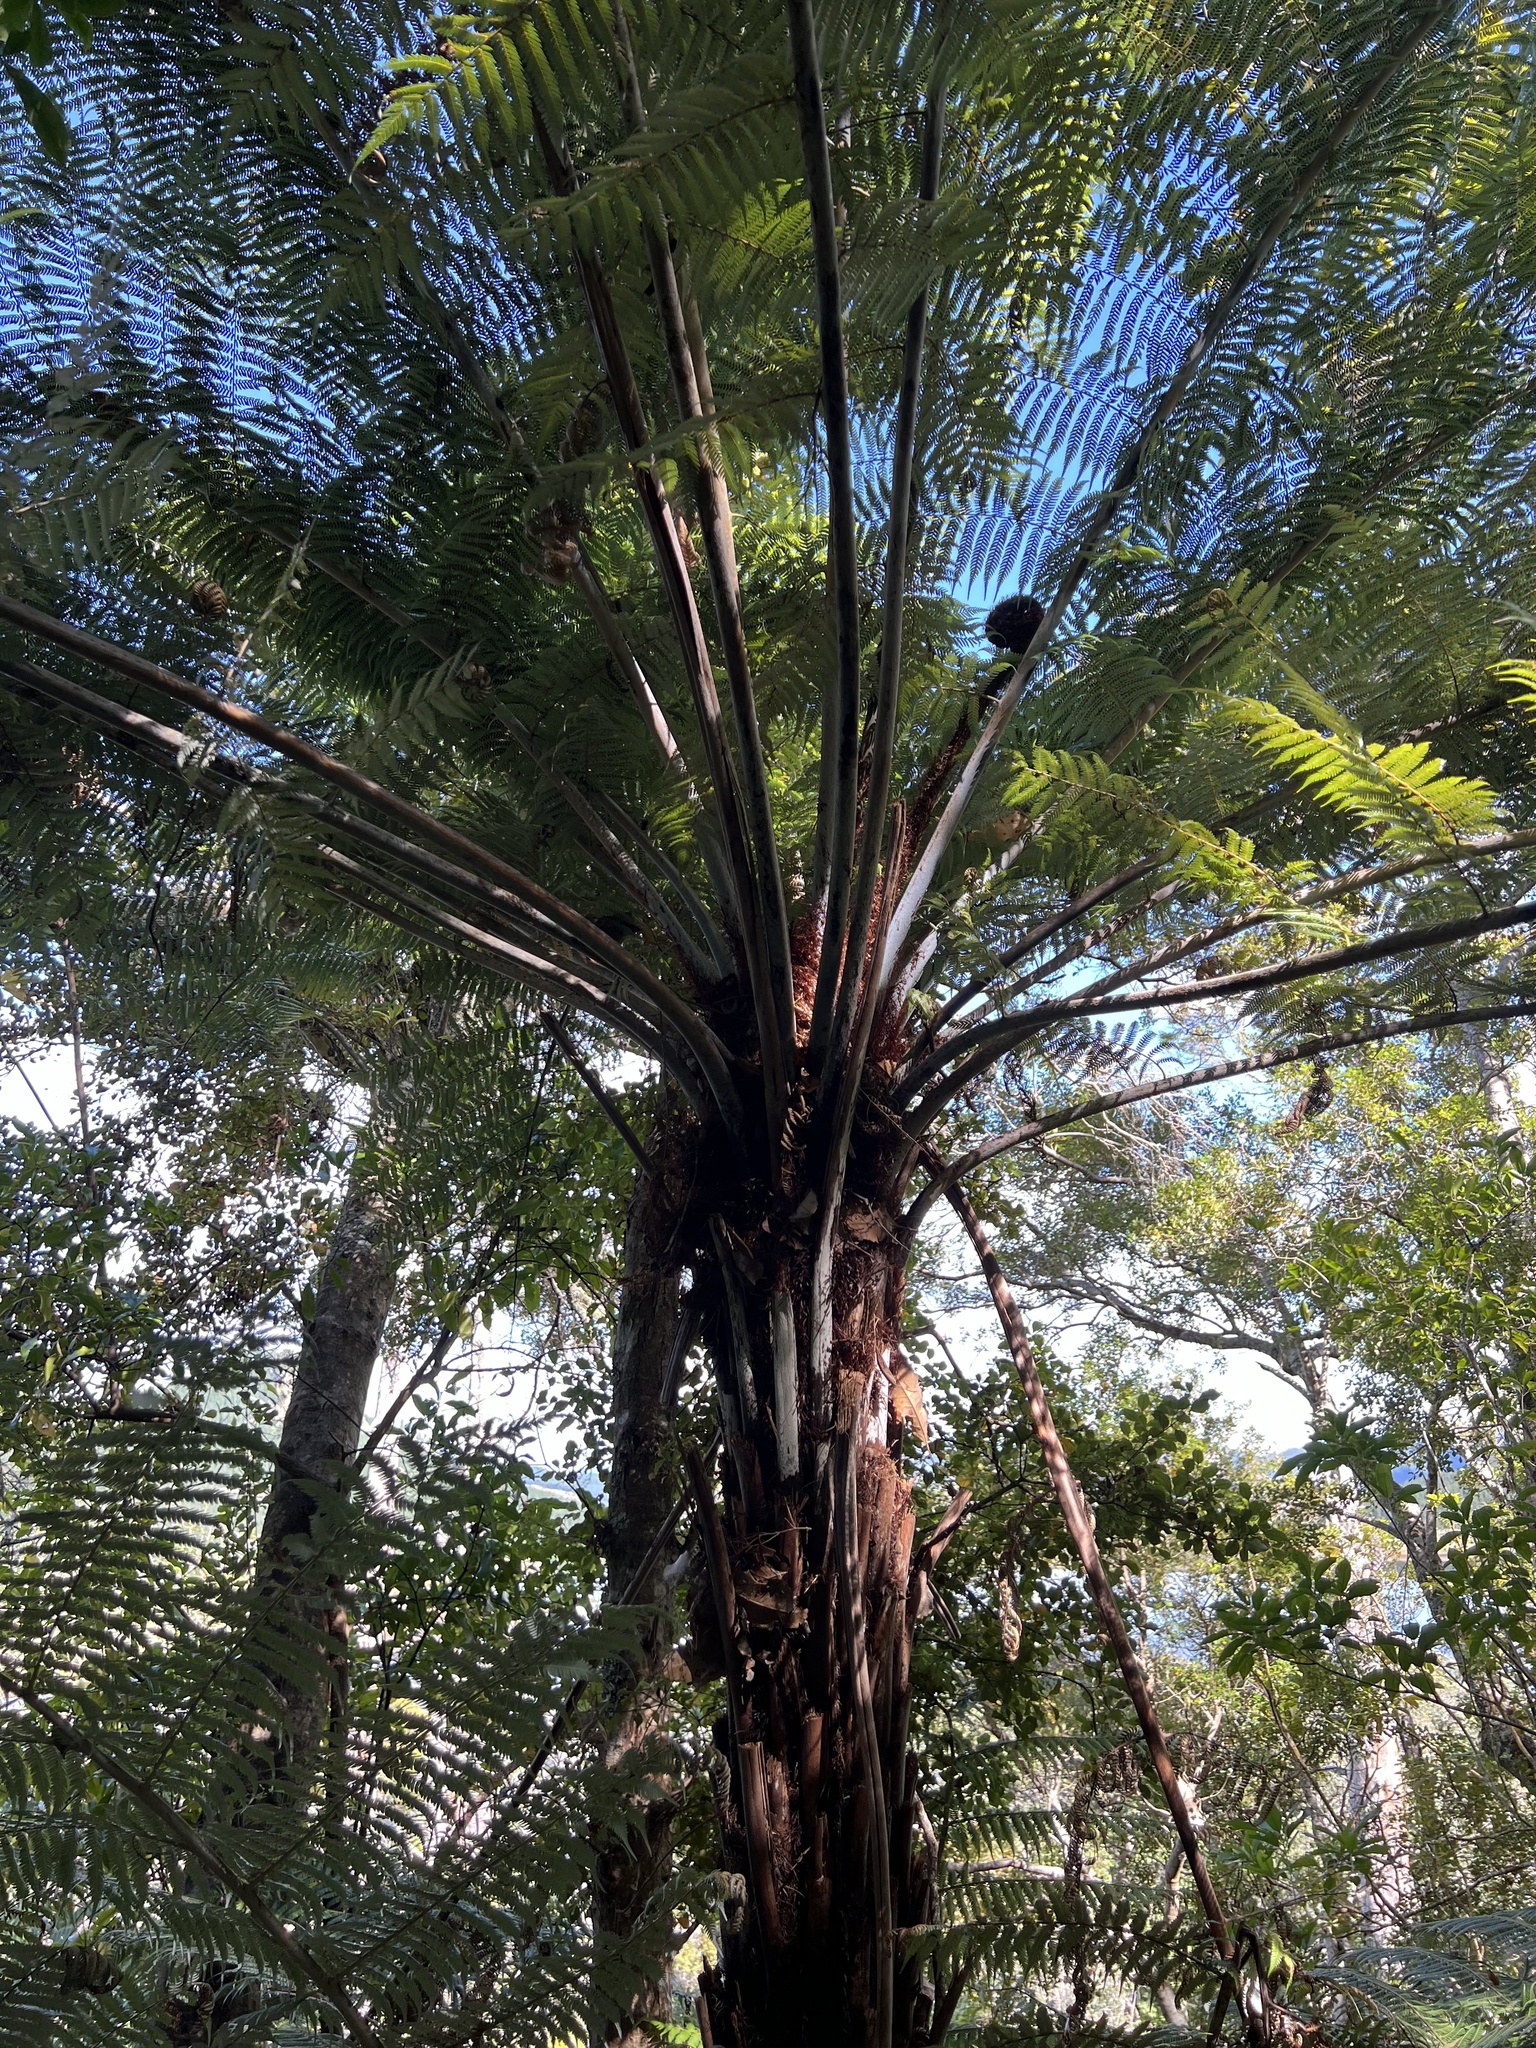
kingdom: Plantae
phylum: Tracheophyta
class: Polypodiopsida
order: Cyatheales
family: Cyatheaceae
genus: Alsophila
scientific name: Alsophila dealbata
